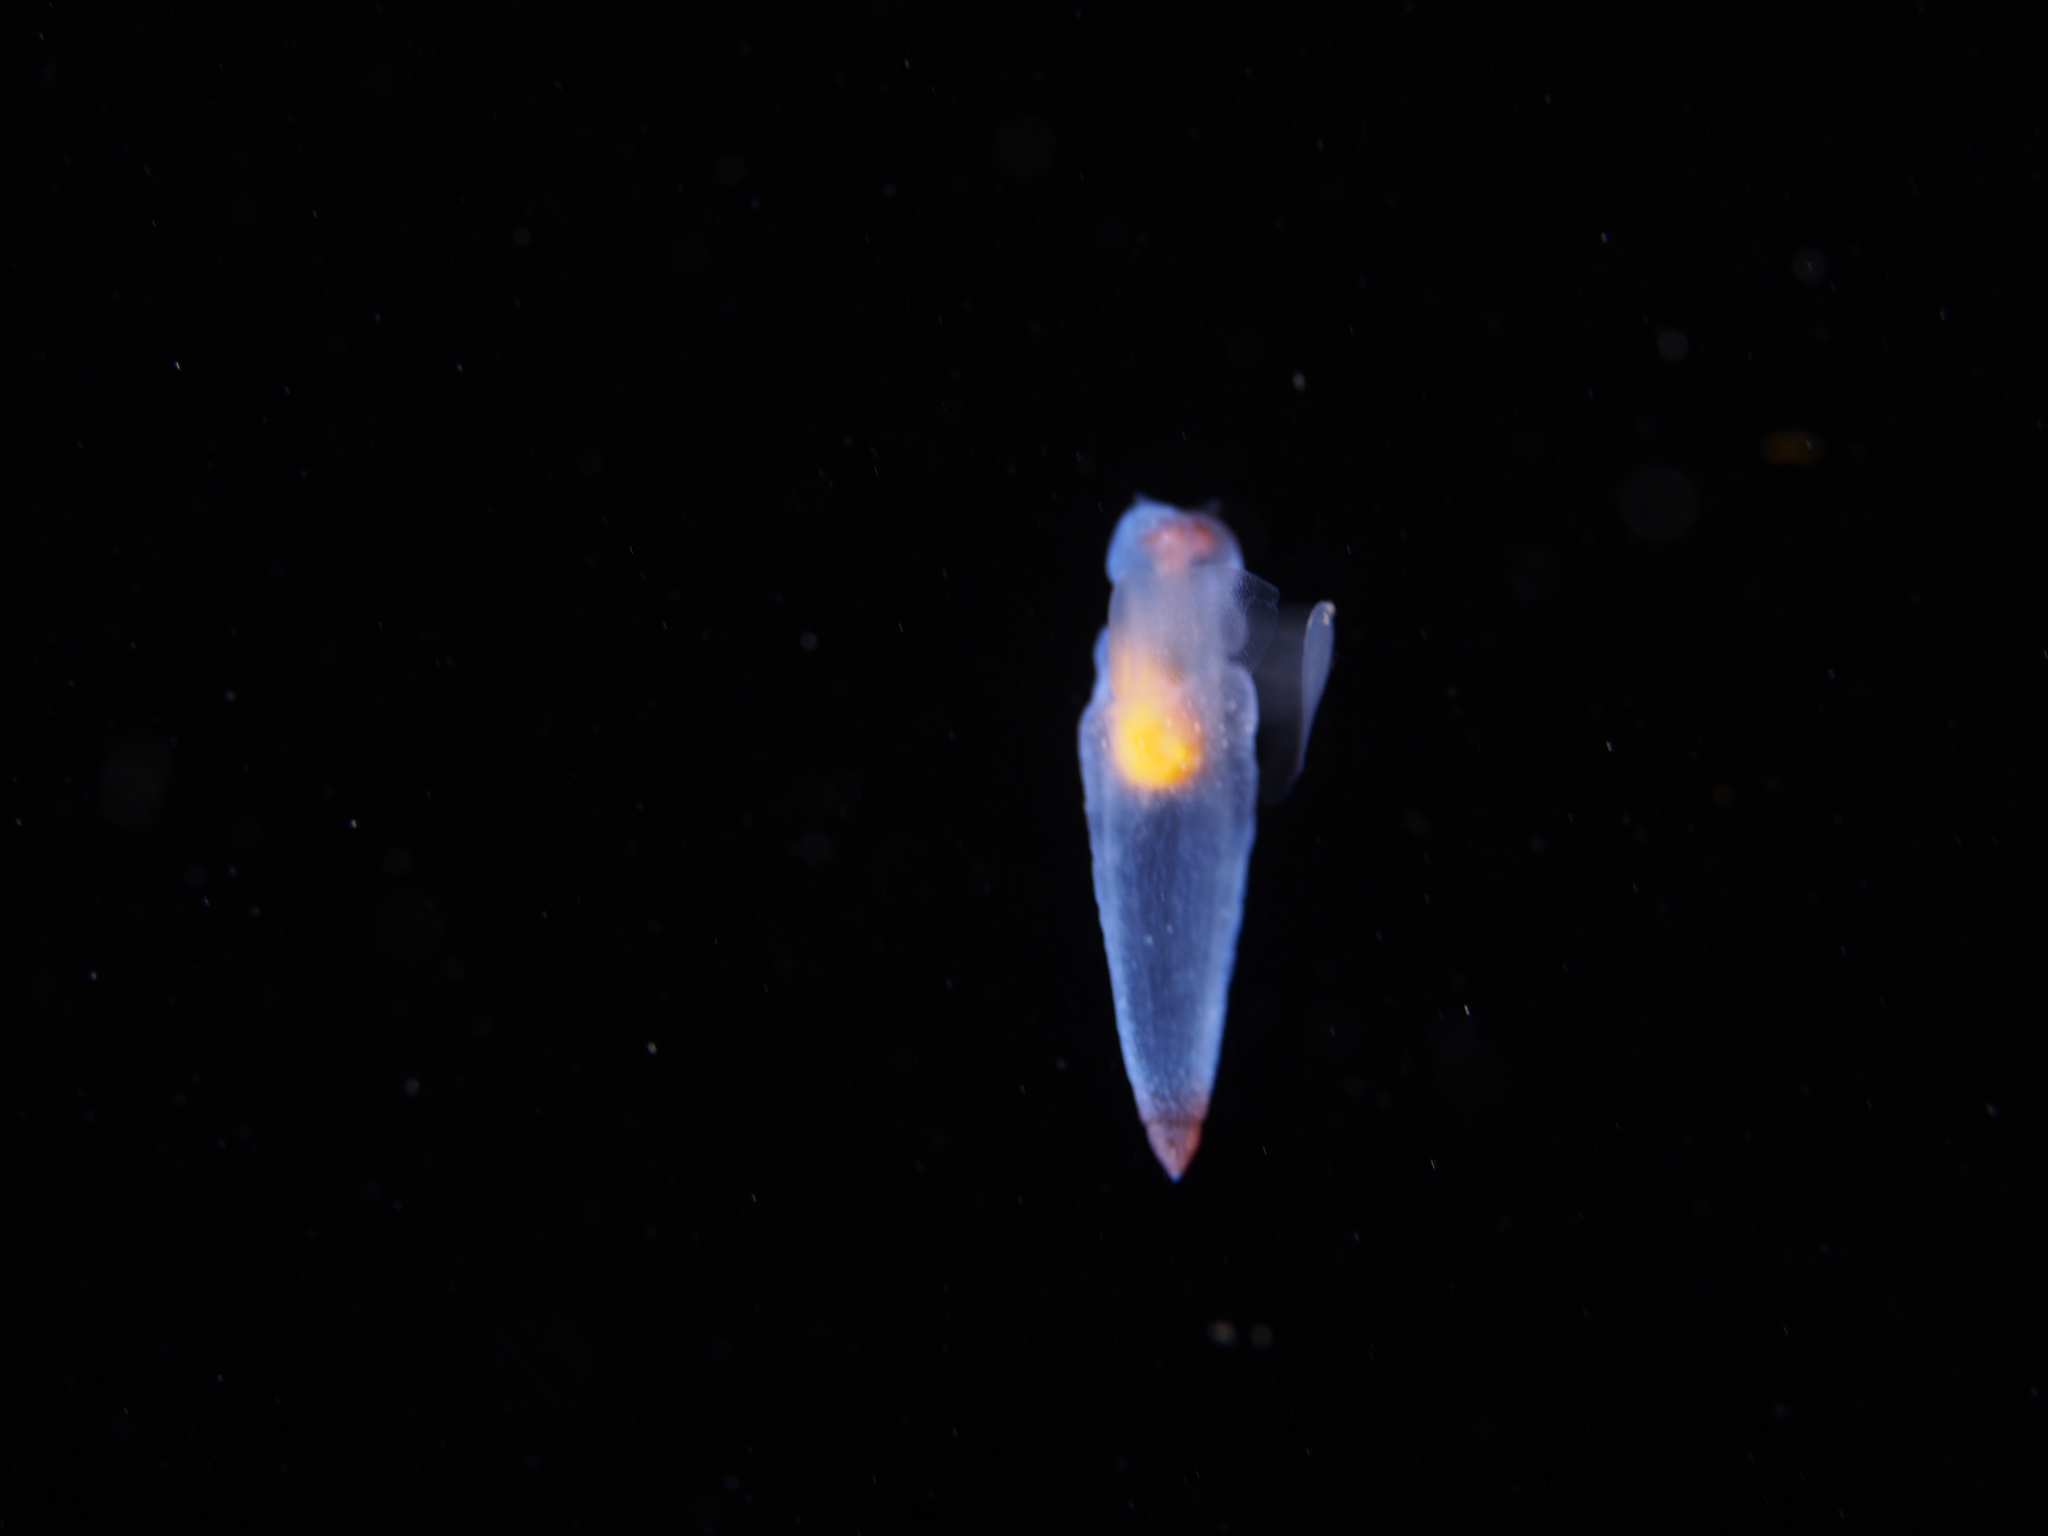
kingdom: Animalia
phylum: Mollusca
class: Gastropoda
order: Pteropoda
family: Clionidae
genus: Clione
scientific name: Clione limacina
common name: Common clione
